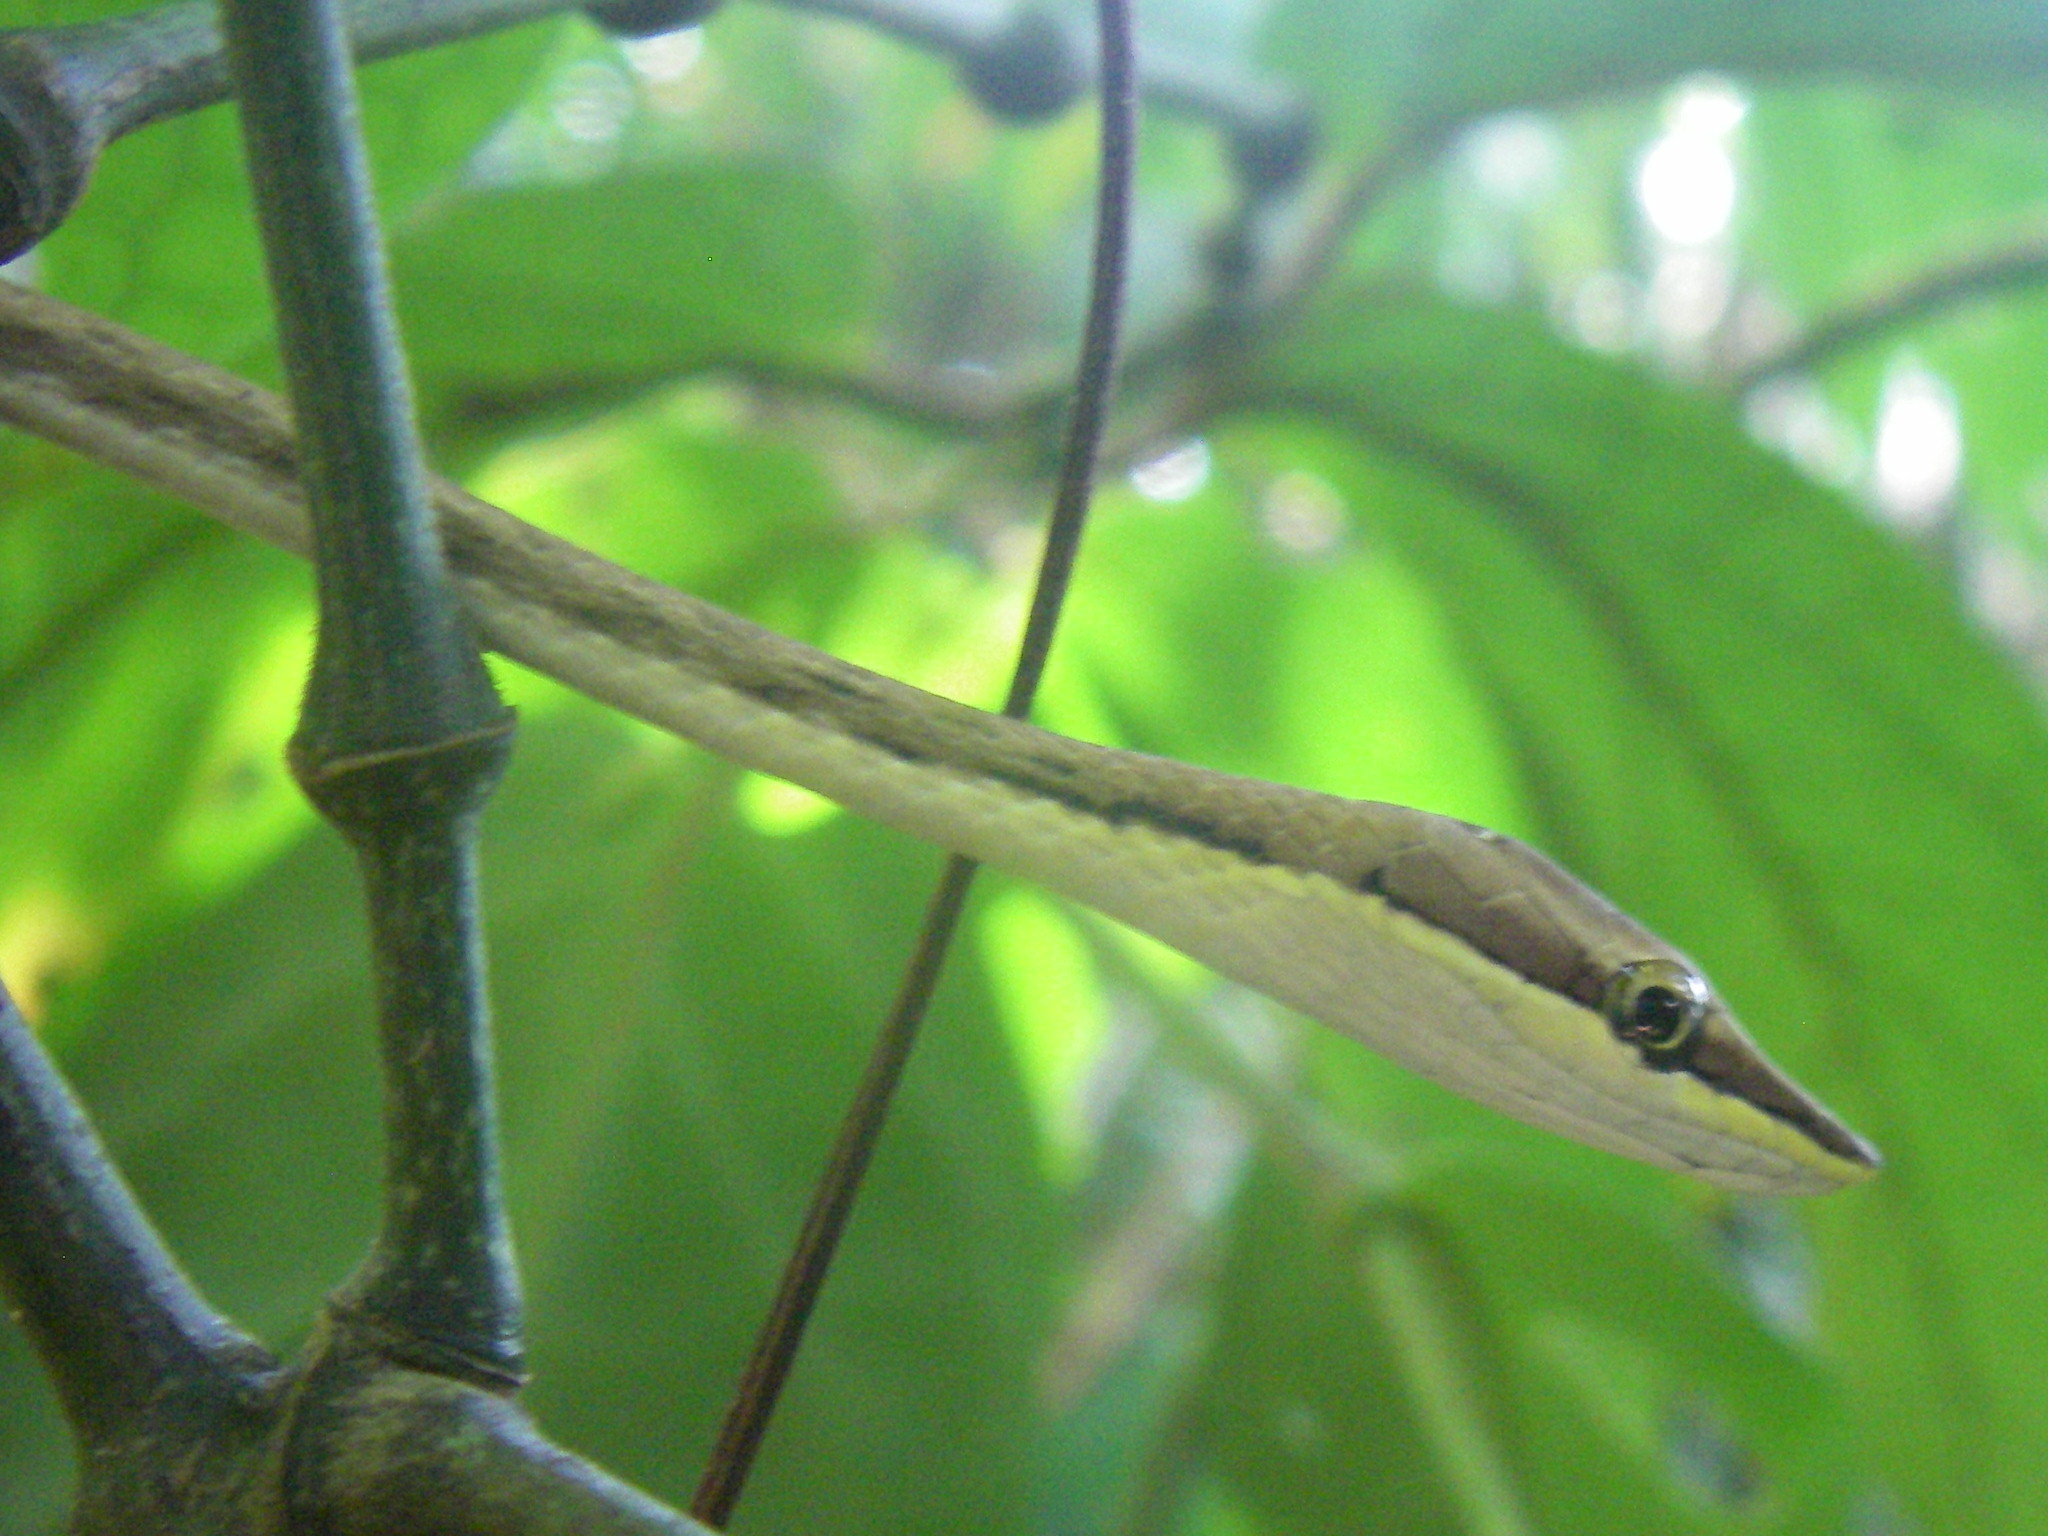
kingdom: Animalia
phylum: Chordata
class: Squamata
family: Colubridae
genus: Oxybelis
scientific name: Oxybelis koehleri
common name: Köhler’s vine snake
